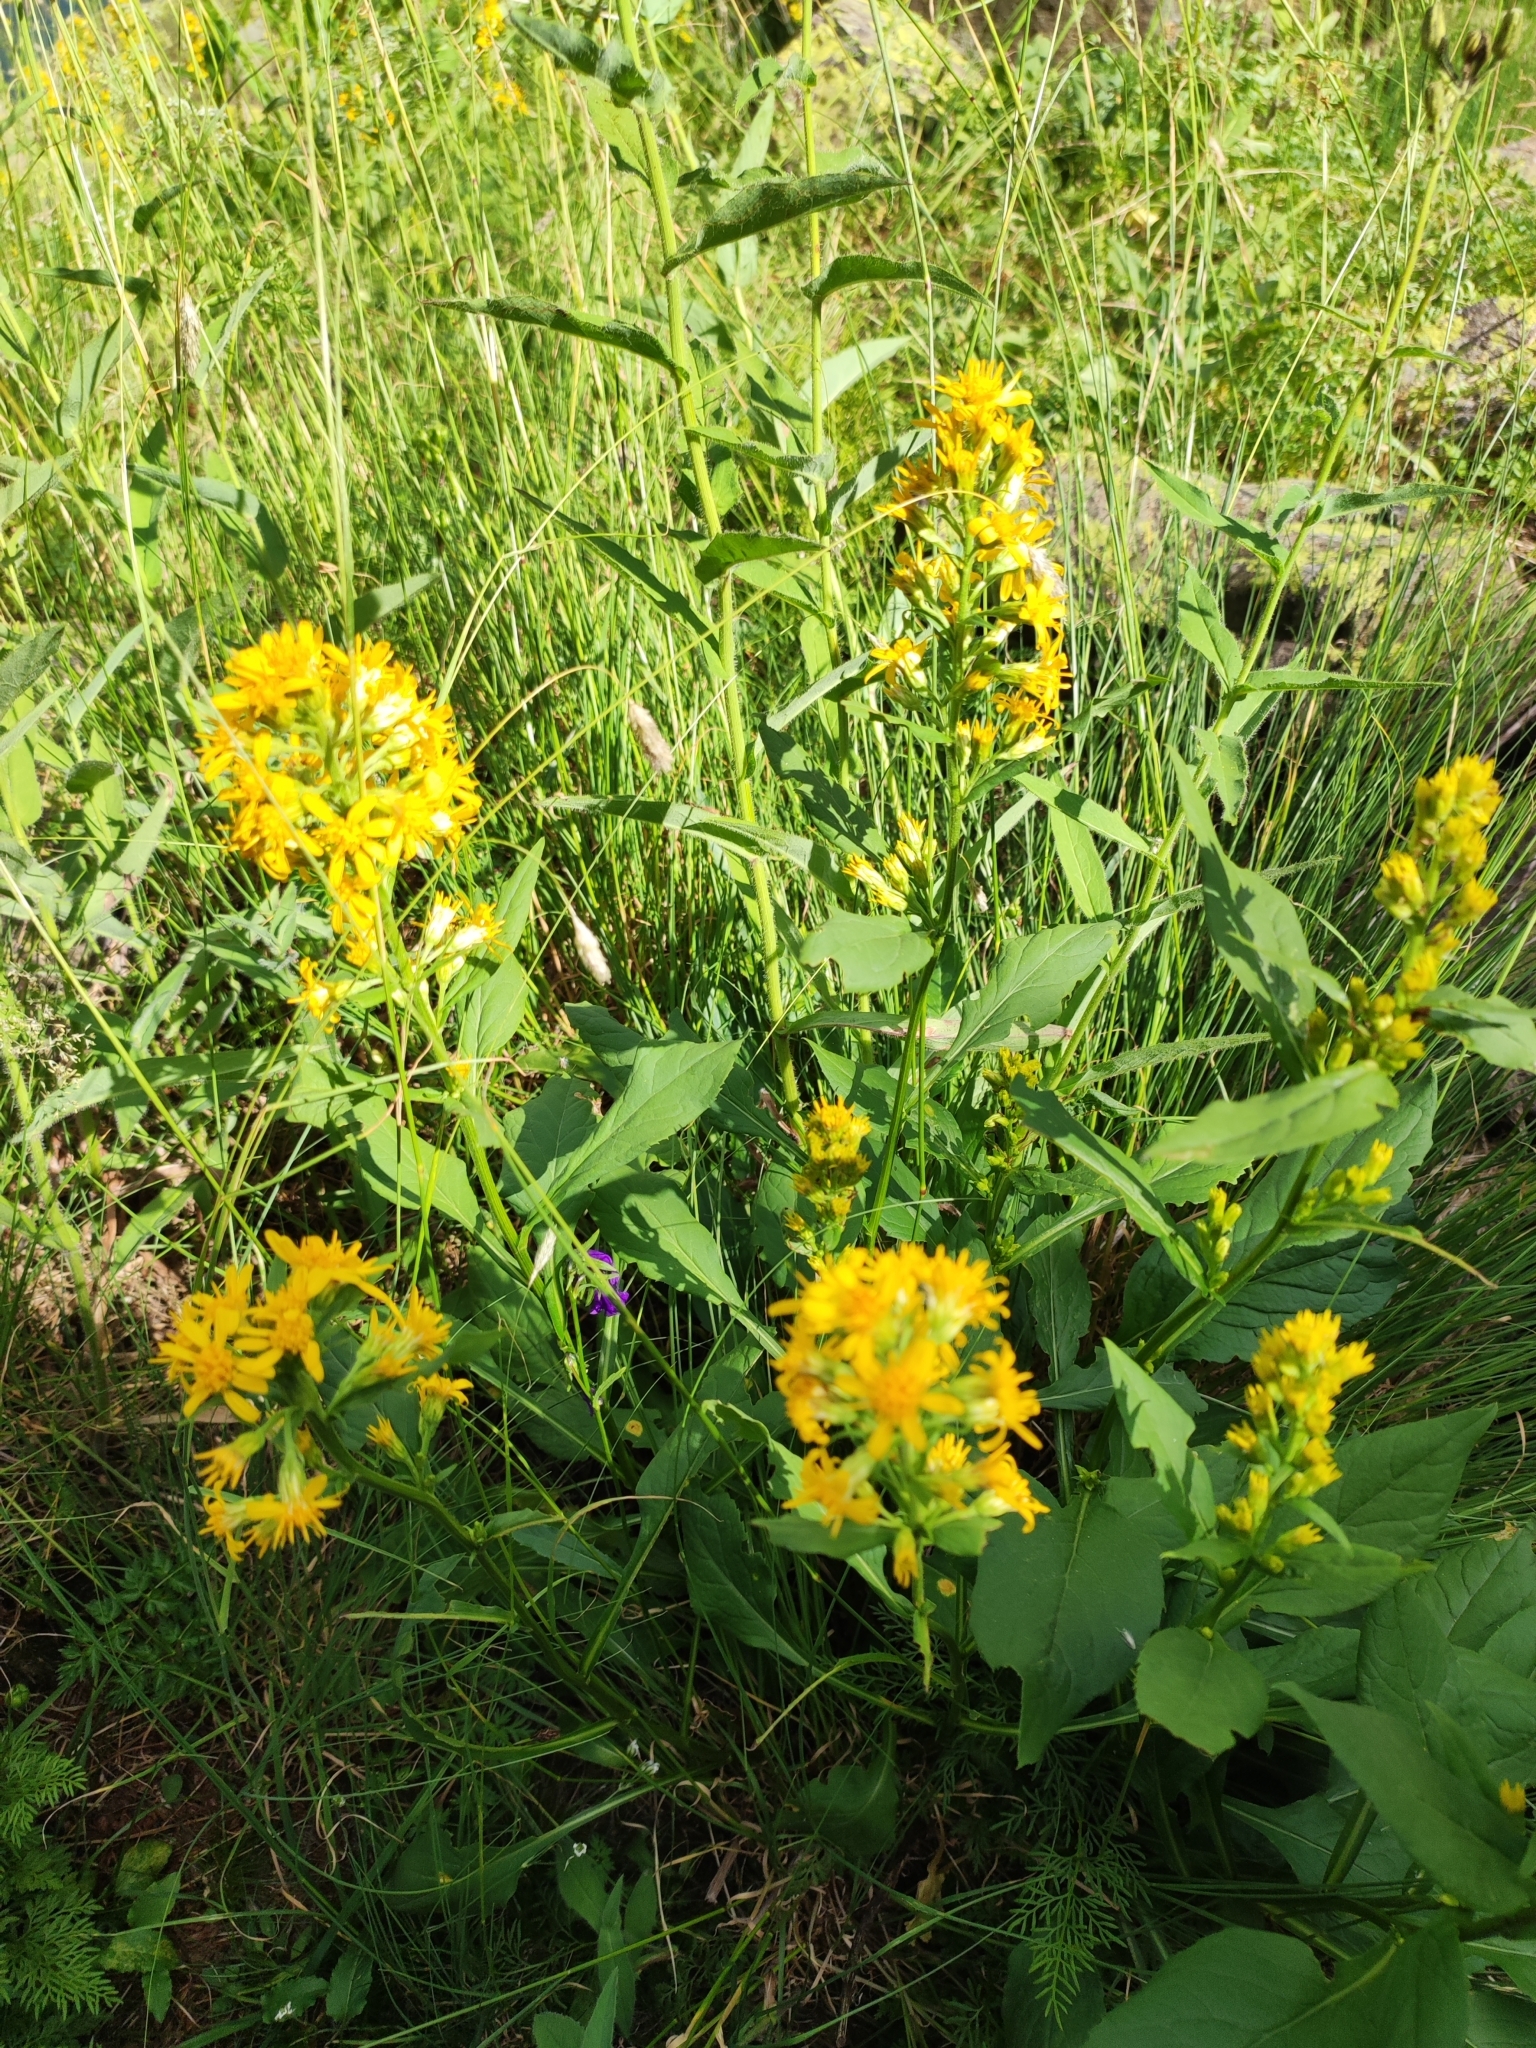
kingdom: Plantae
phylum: Tracheophyta
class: Magnoliopsida
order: Asterales
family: Asteraceae
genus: Solidago
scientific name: Solidago virgaurea
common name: Goldenrod
